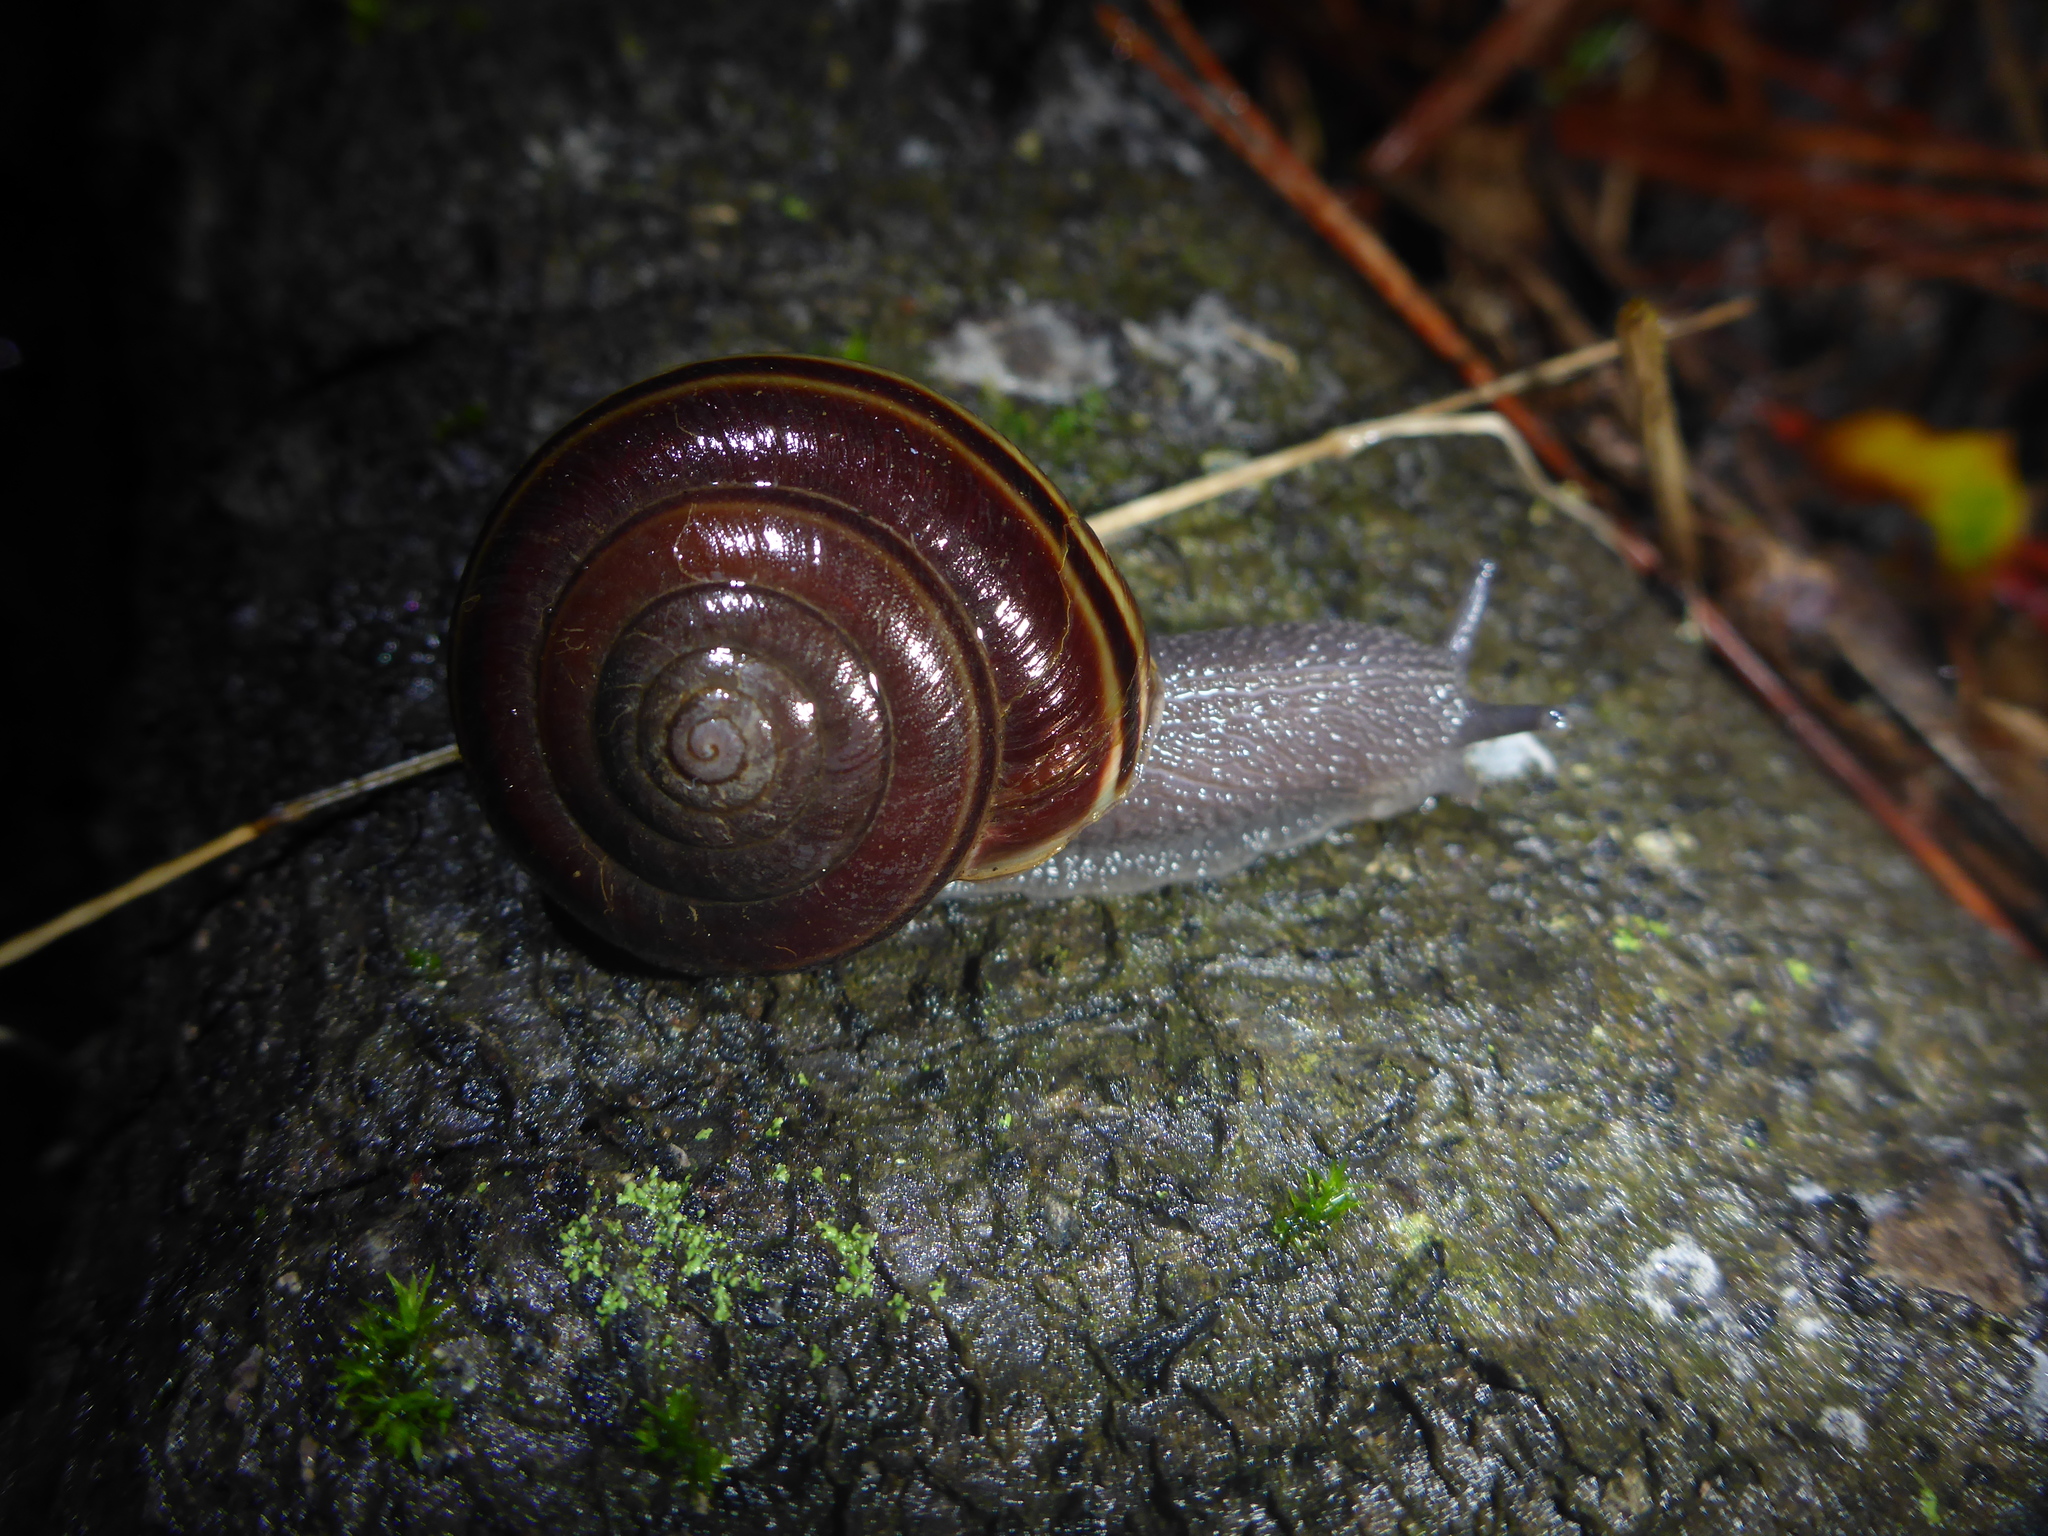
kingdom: Animalia
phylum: Mollusca
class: Gastropoda
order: Stylommatophora
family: Xanthonychidae
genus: Helminthoglypta
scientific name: Helminthoglypta sequoicola
